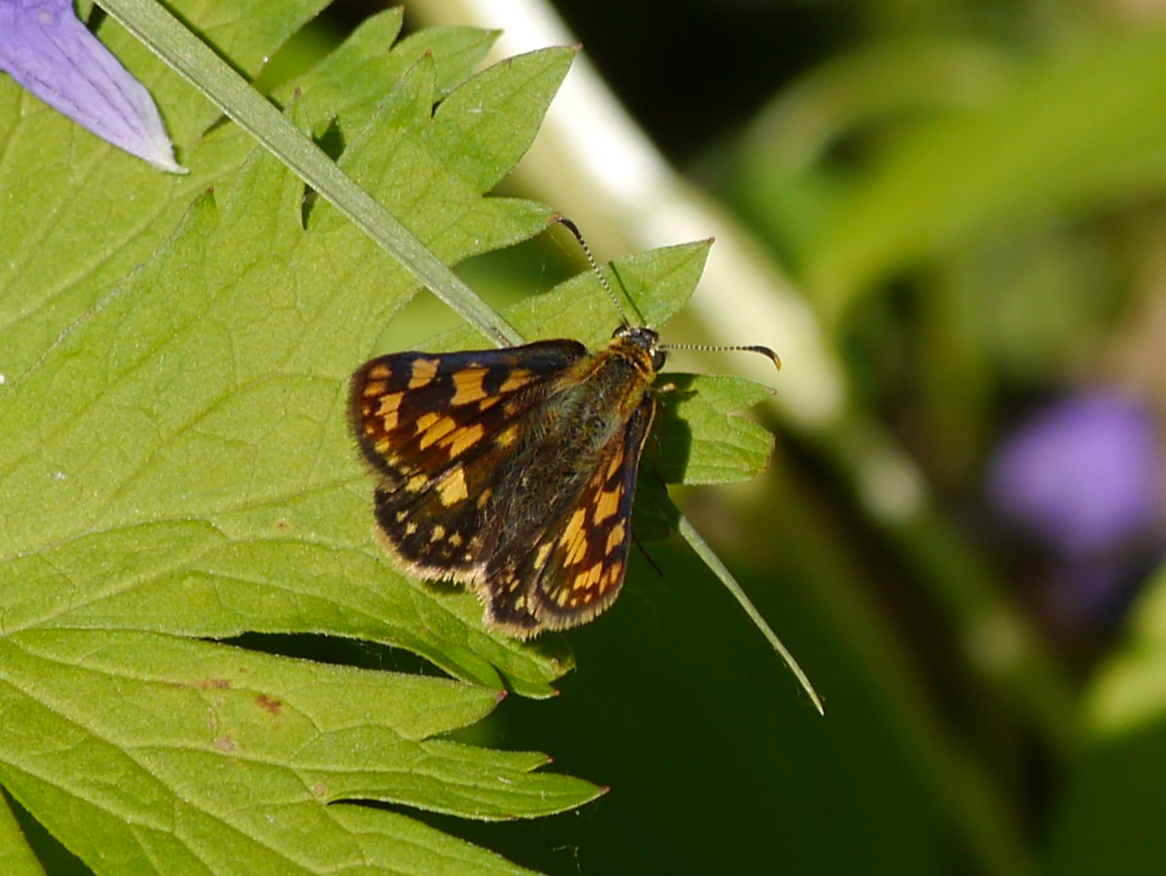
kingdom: Animalia
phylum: Arthropoda
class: Insecta
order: Lepidoptera
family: Hesperiidae
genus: Carterocephalus
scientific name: Carterocephalus skada
